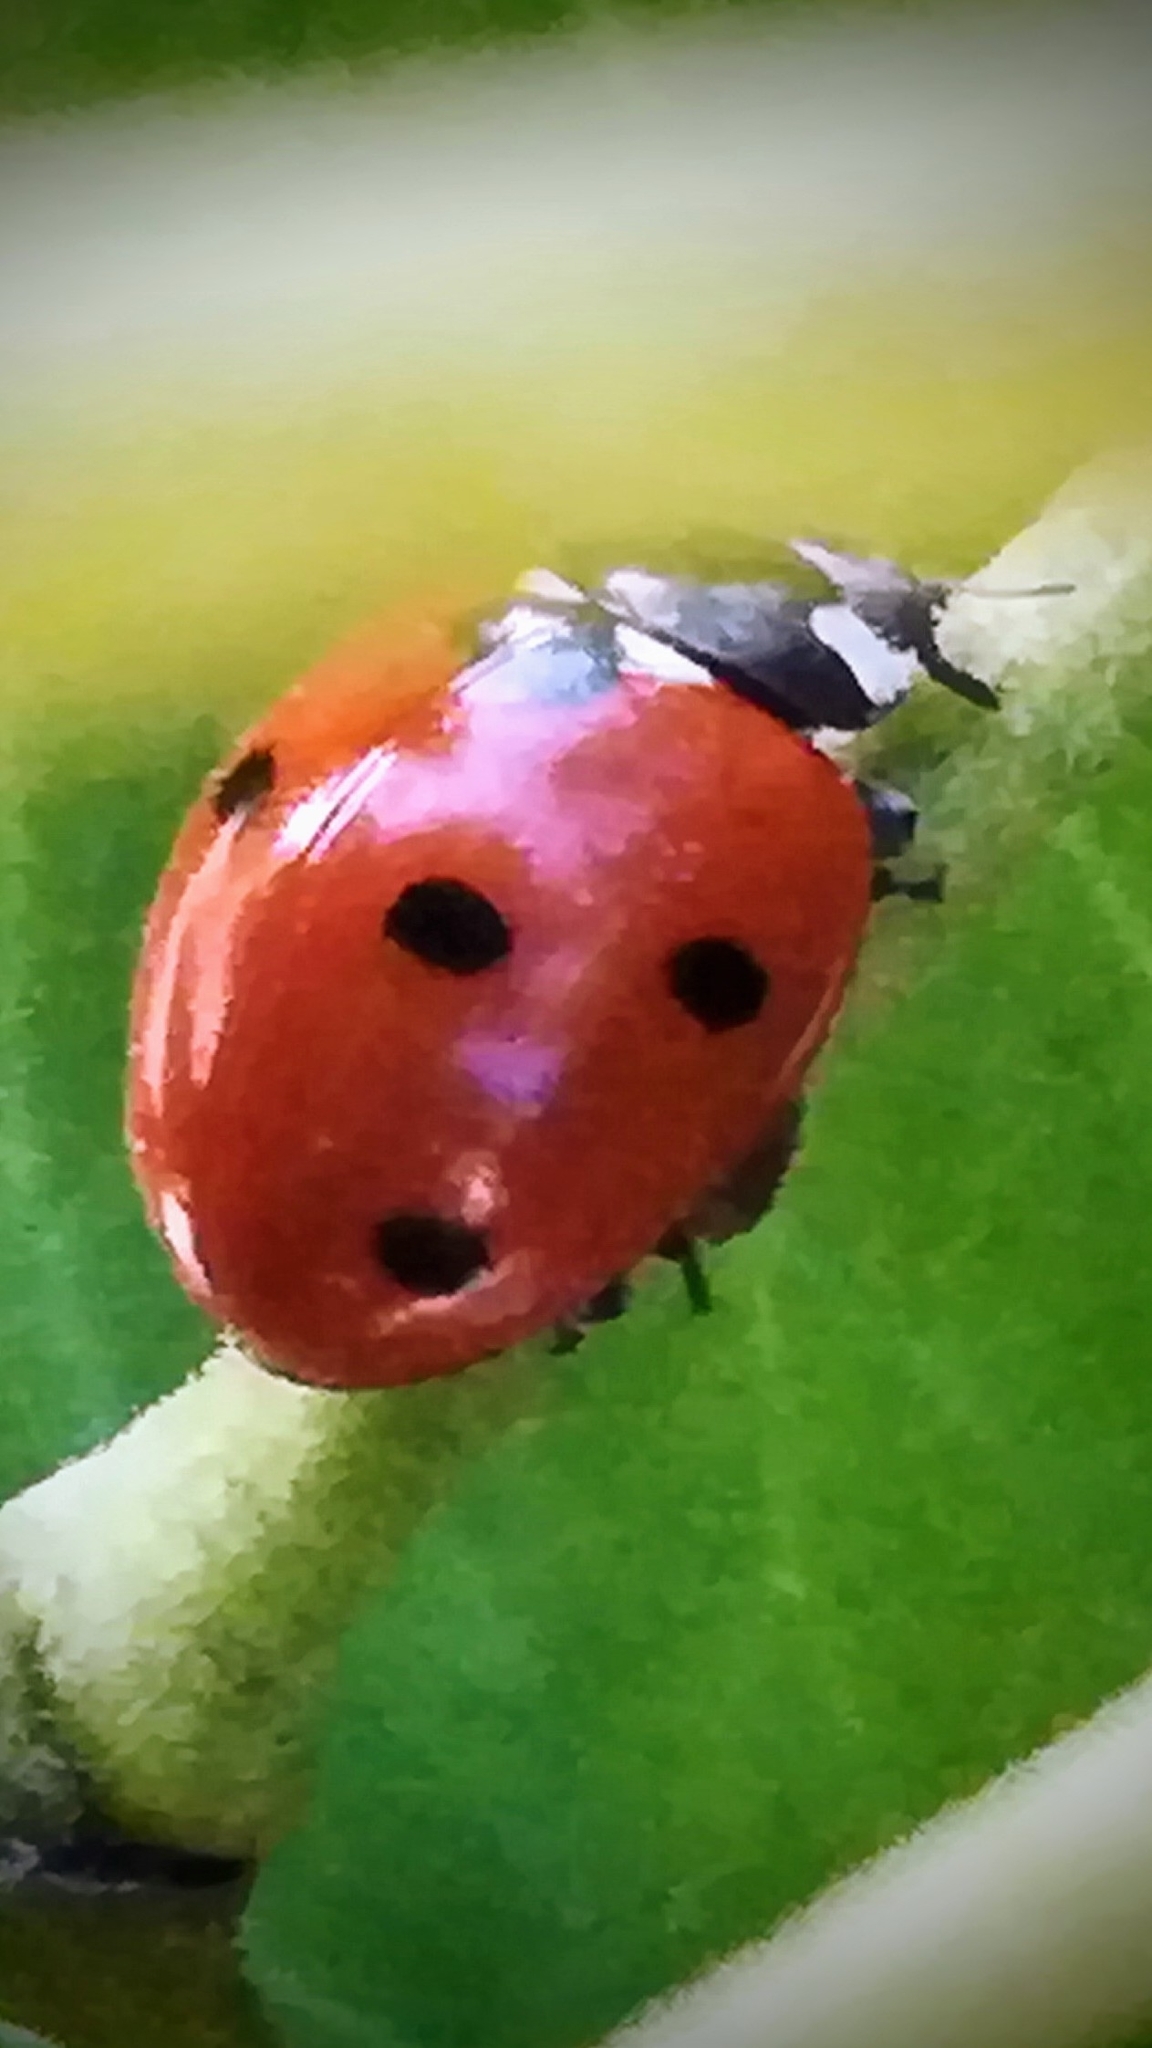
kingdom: Animalia
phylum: Arthropoda
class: Insecta
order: Coleoptera
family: Coccinellidae
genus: Coccinella
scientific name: Coccinella septempunctata
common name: Sevenspotted lady beetle
